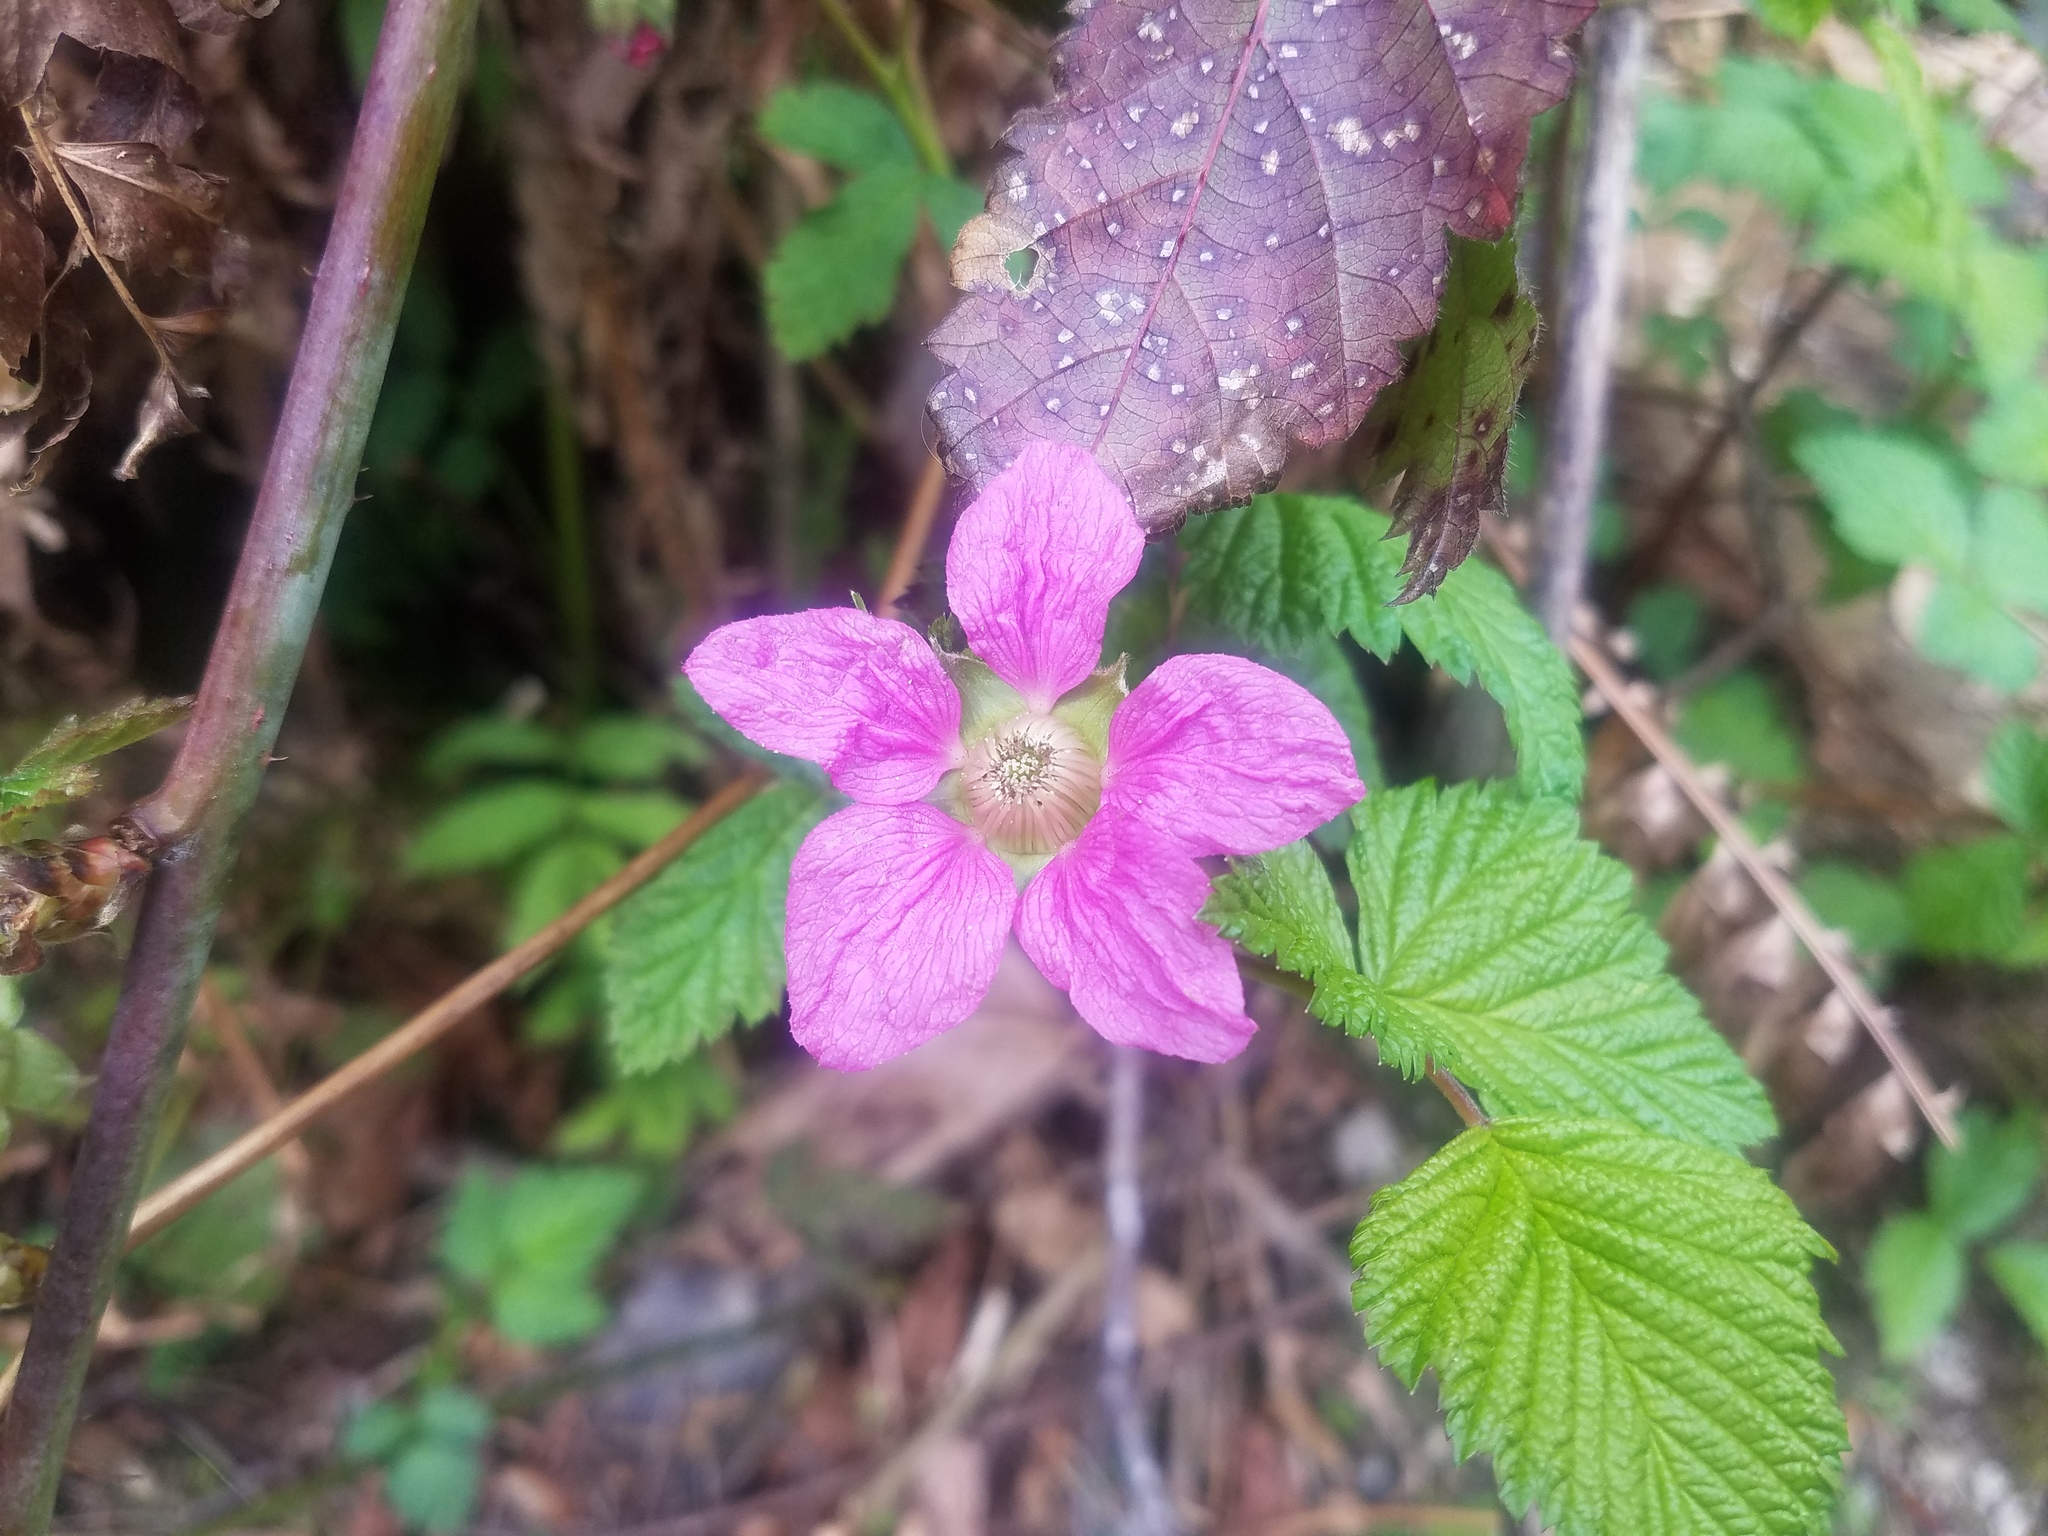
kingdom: Plantae
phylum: Tracheophyta
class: Magnoliopsida
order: Rosales
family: Rosaceae
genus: Rubus
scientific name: Rubus spectabilis
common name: Salmonberry
